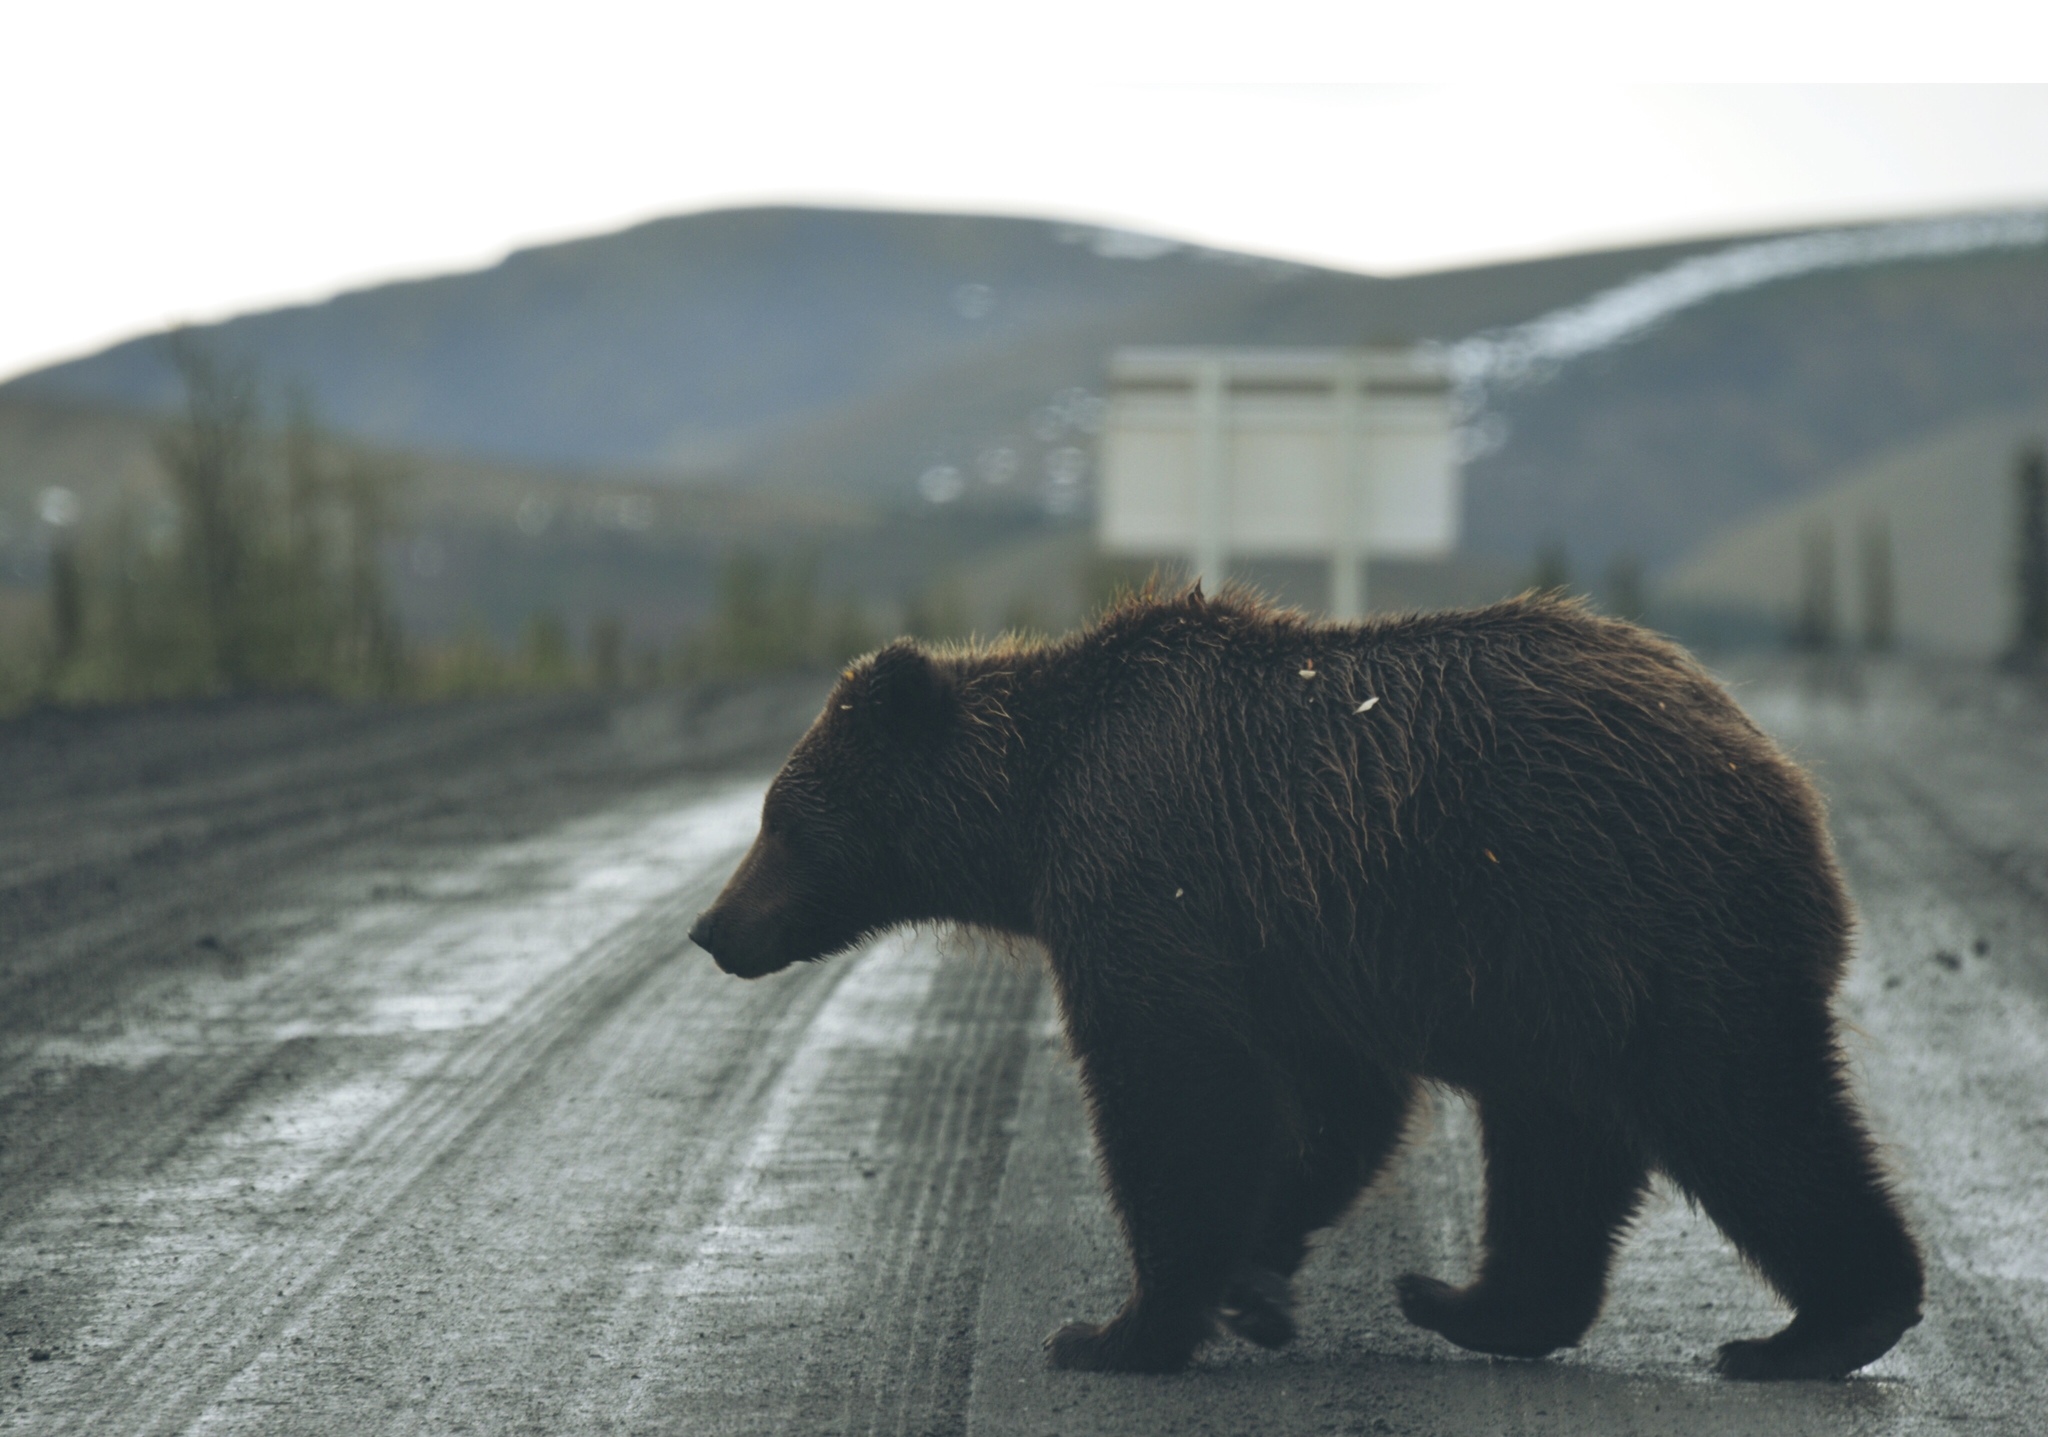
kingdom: Animalia
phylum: Chordata
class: Mammalia
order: Carnivora
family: Ursidae
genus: Ursus
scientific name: Ursus arctos
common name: Brown bear
